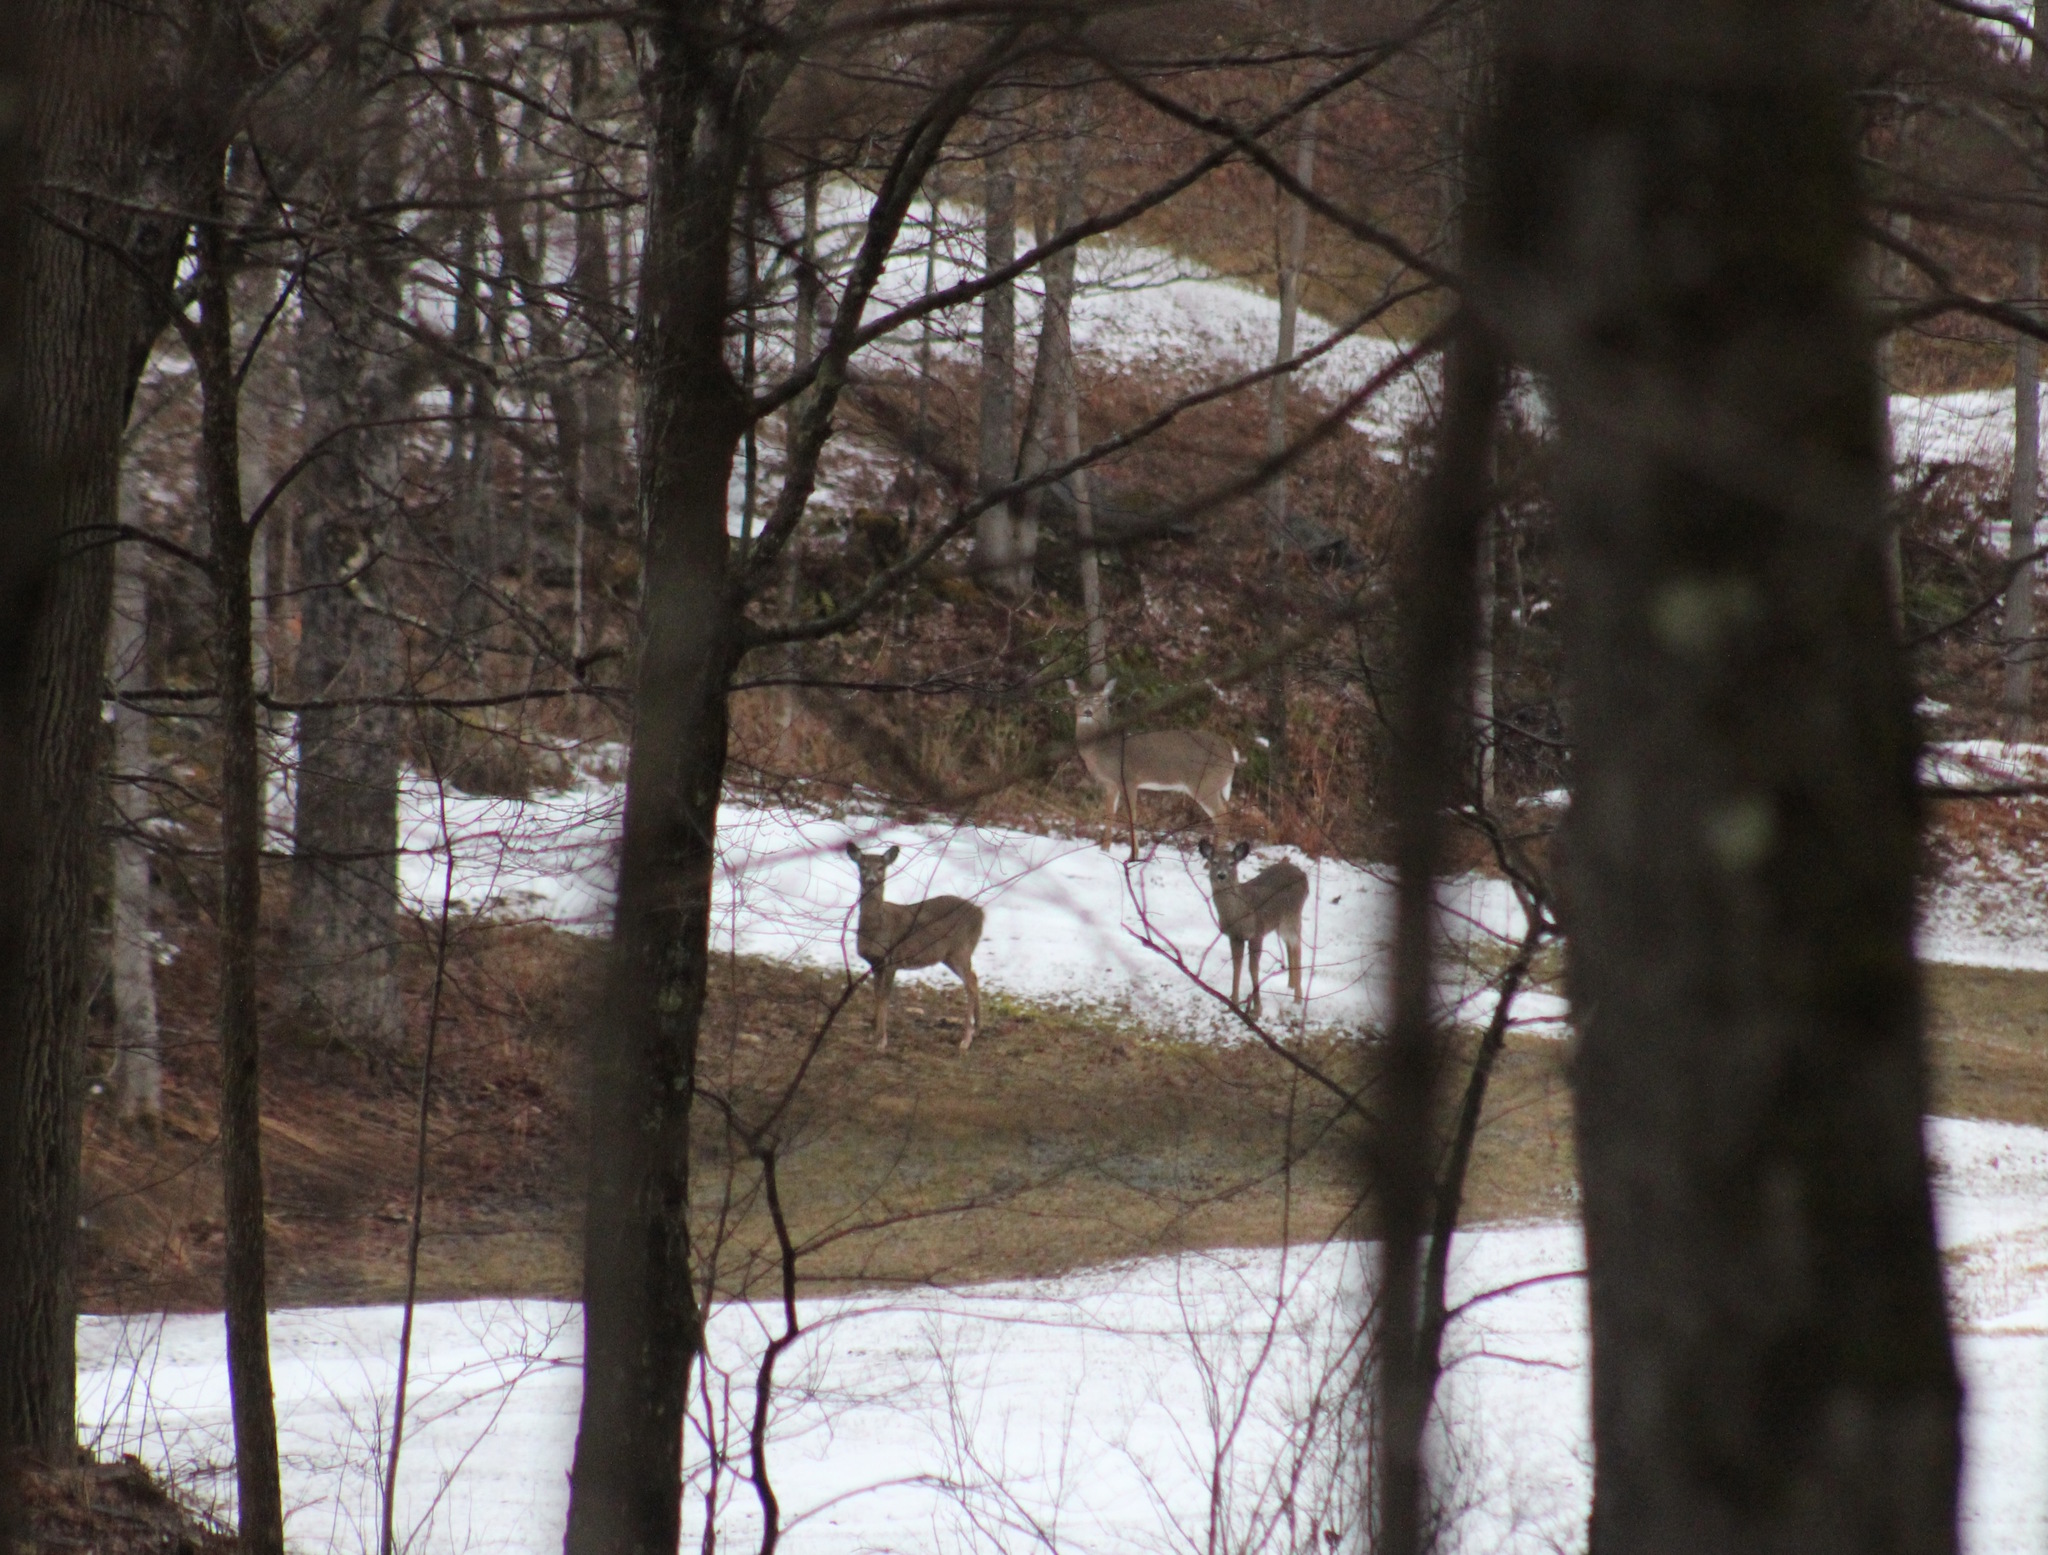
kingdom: Animalia
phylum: Chordata
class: Mammalia
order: Artiodactyla
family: Cervidae
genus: Odocoileus
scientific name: Odocoileus virginianus
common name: White-tailed deer
